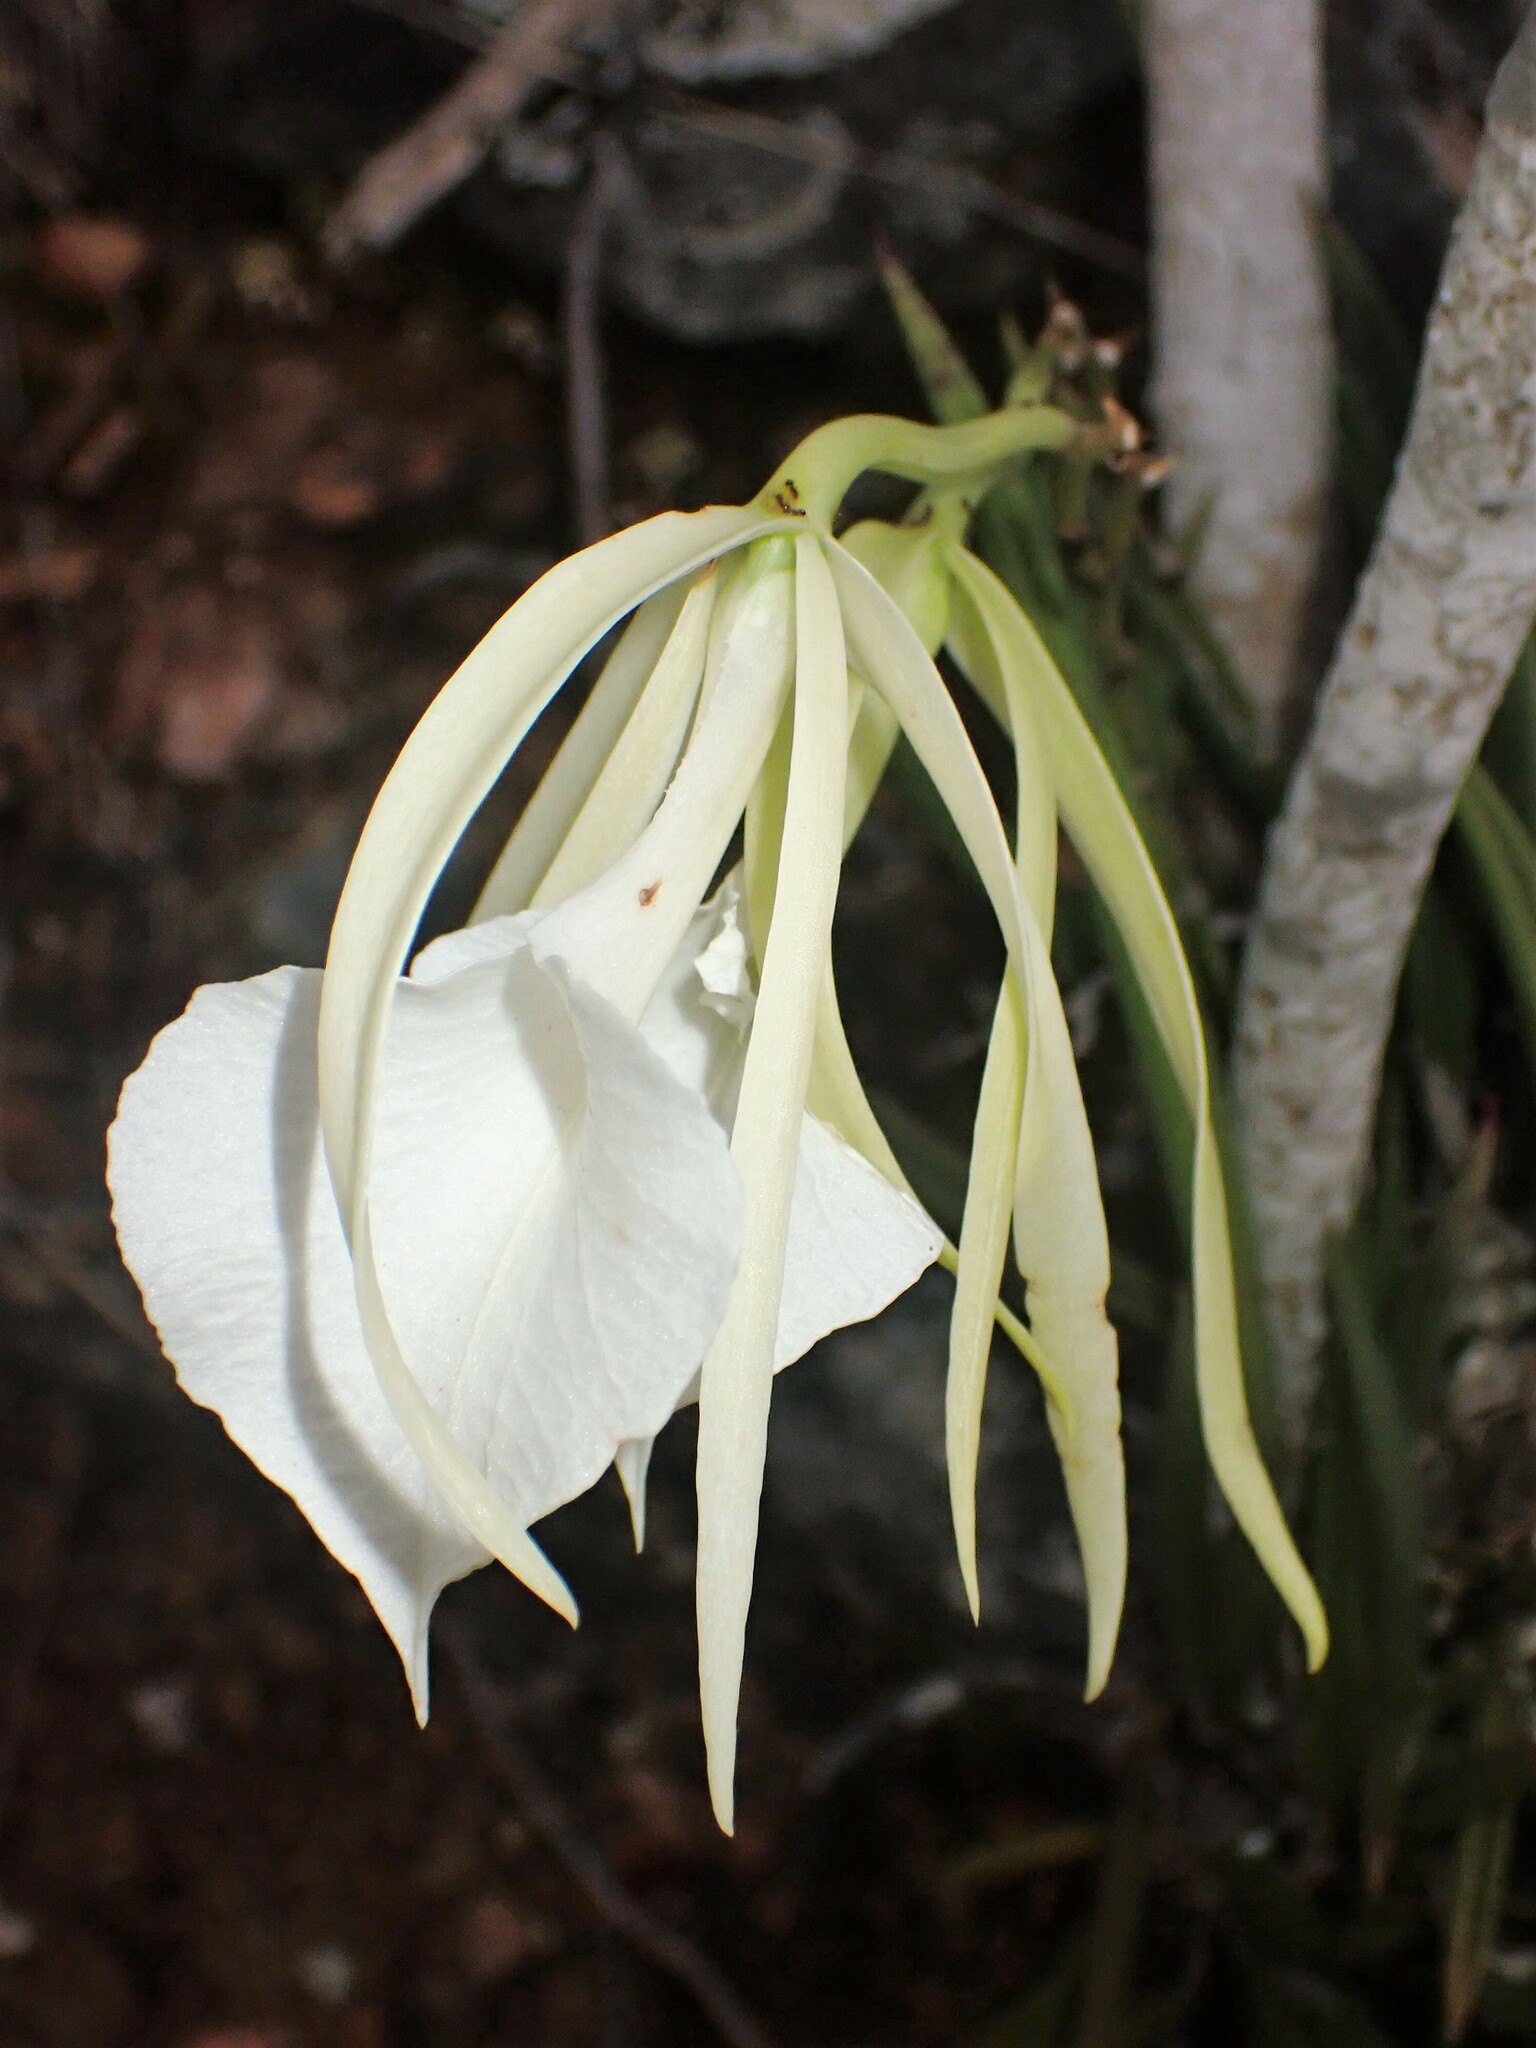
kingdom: Plantae
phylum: Tracheophyta
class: Liliopsida
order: Asparagales
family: Orchidaceae
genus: Brassavola
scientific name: Brassavola nodosa
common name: Lady of the night
